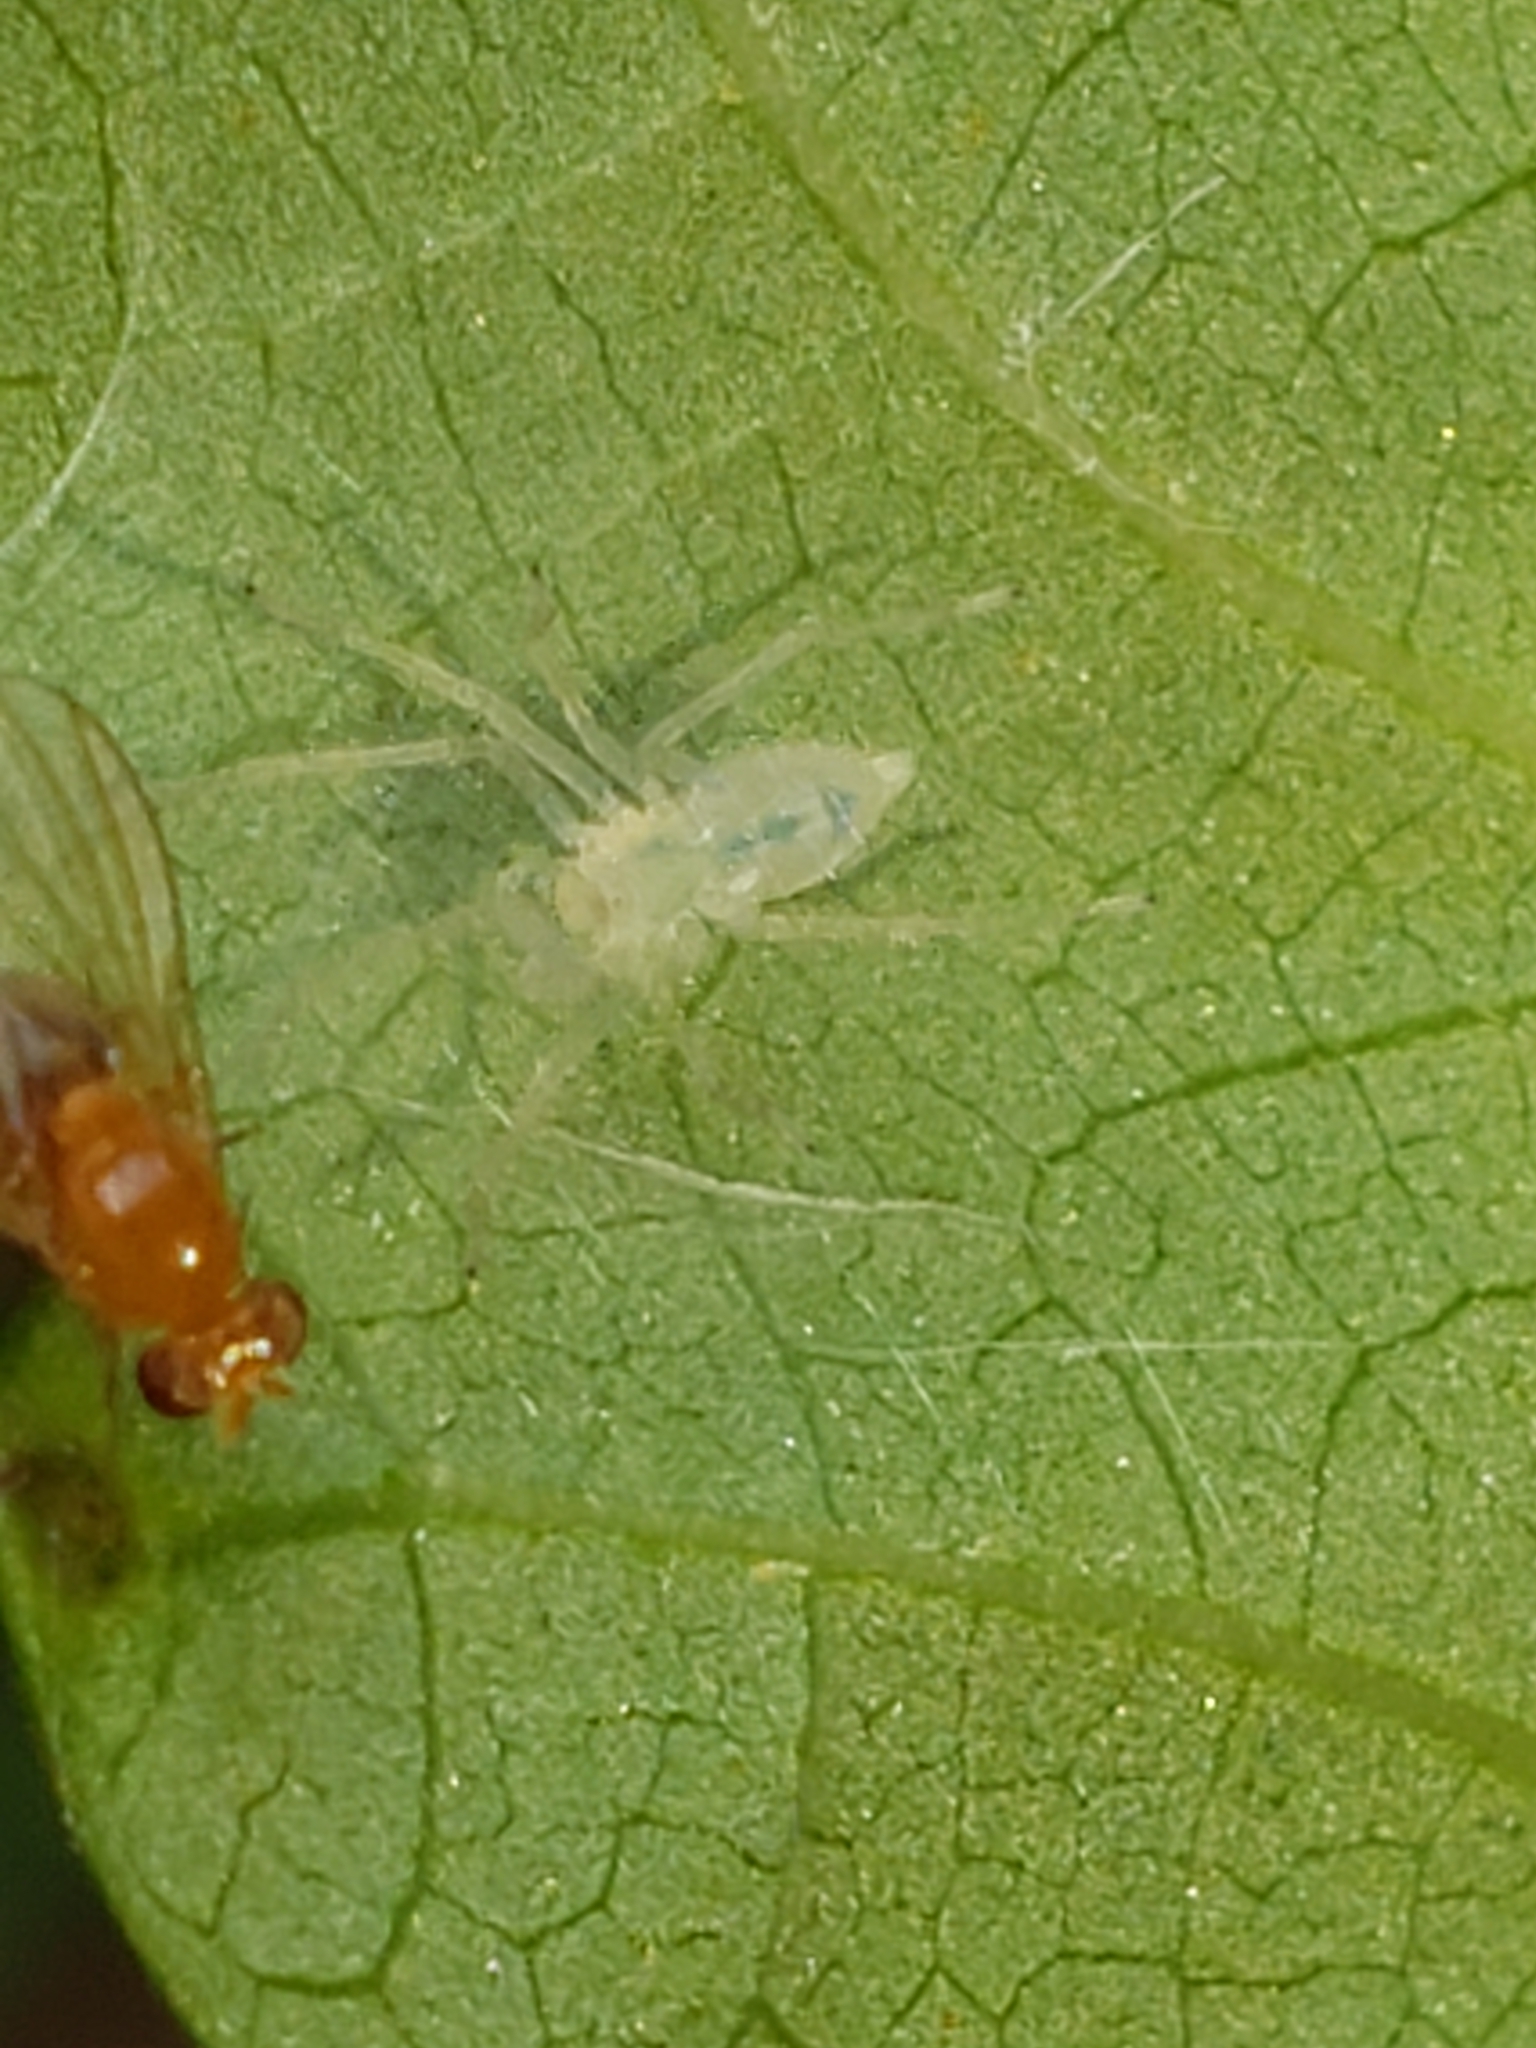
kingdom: Animalia
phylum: Arthropoda
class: Arachnida
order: Araneae
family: Anyphaenidae
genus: Wulfila
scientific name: Wulfila albens
